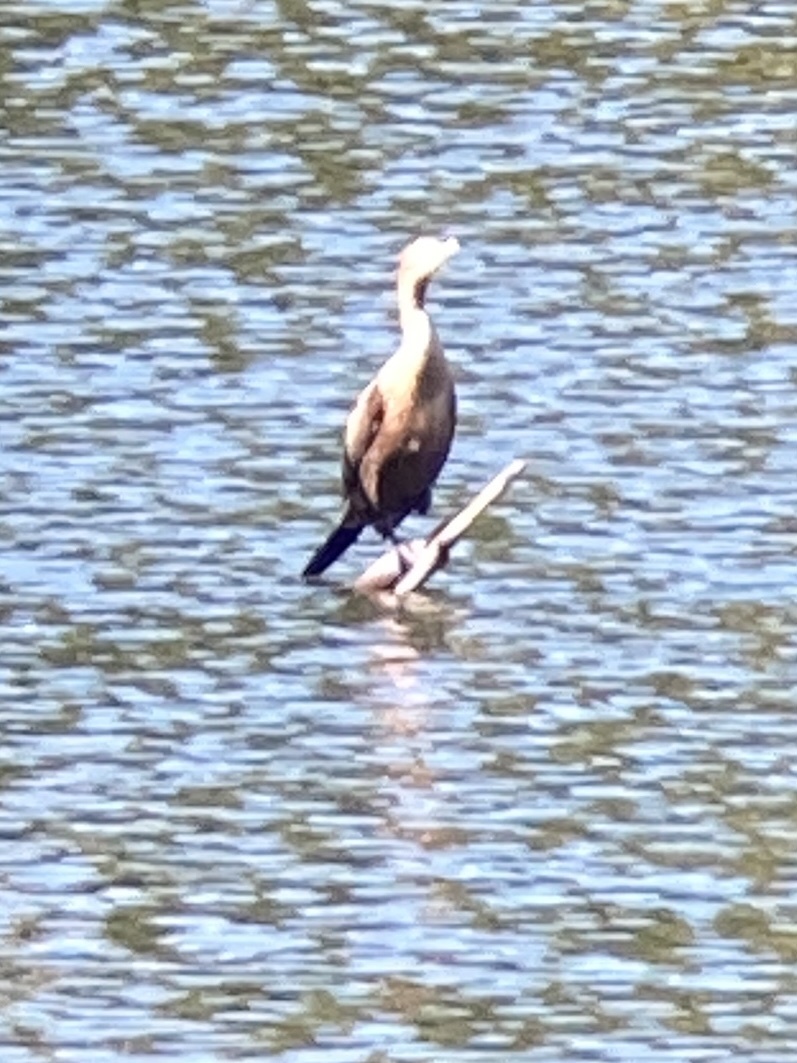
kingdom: Animalia
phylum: Chordata
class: Aves
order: Suliformes
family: Phalacrocoracidae
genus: Phalacrocorax
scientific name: Phalacrocorax auritus
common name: Double-crested cormorant
